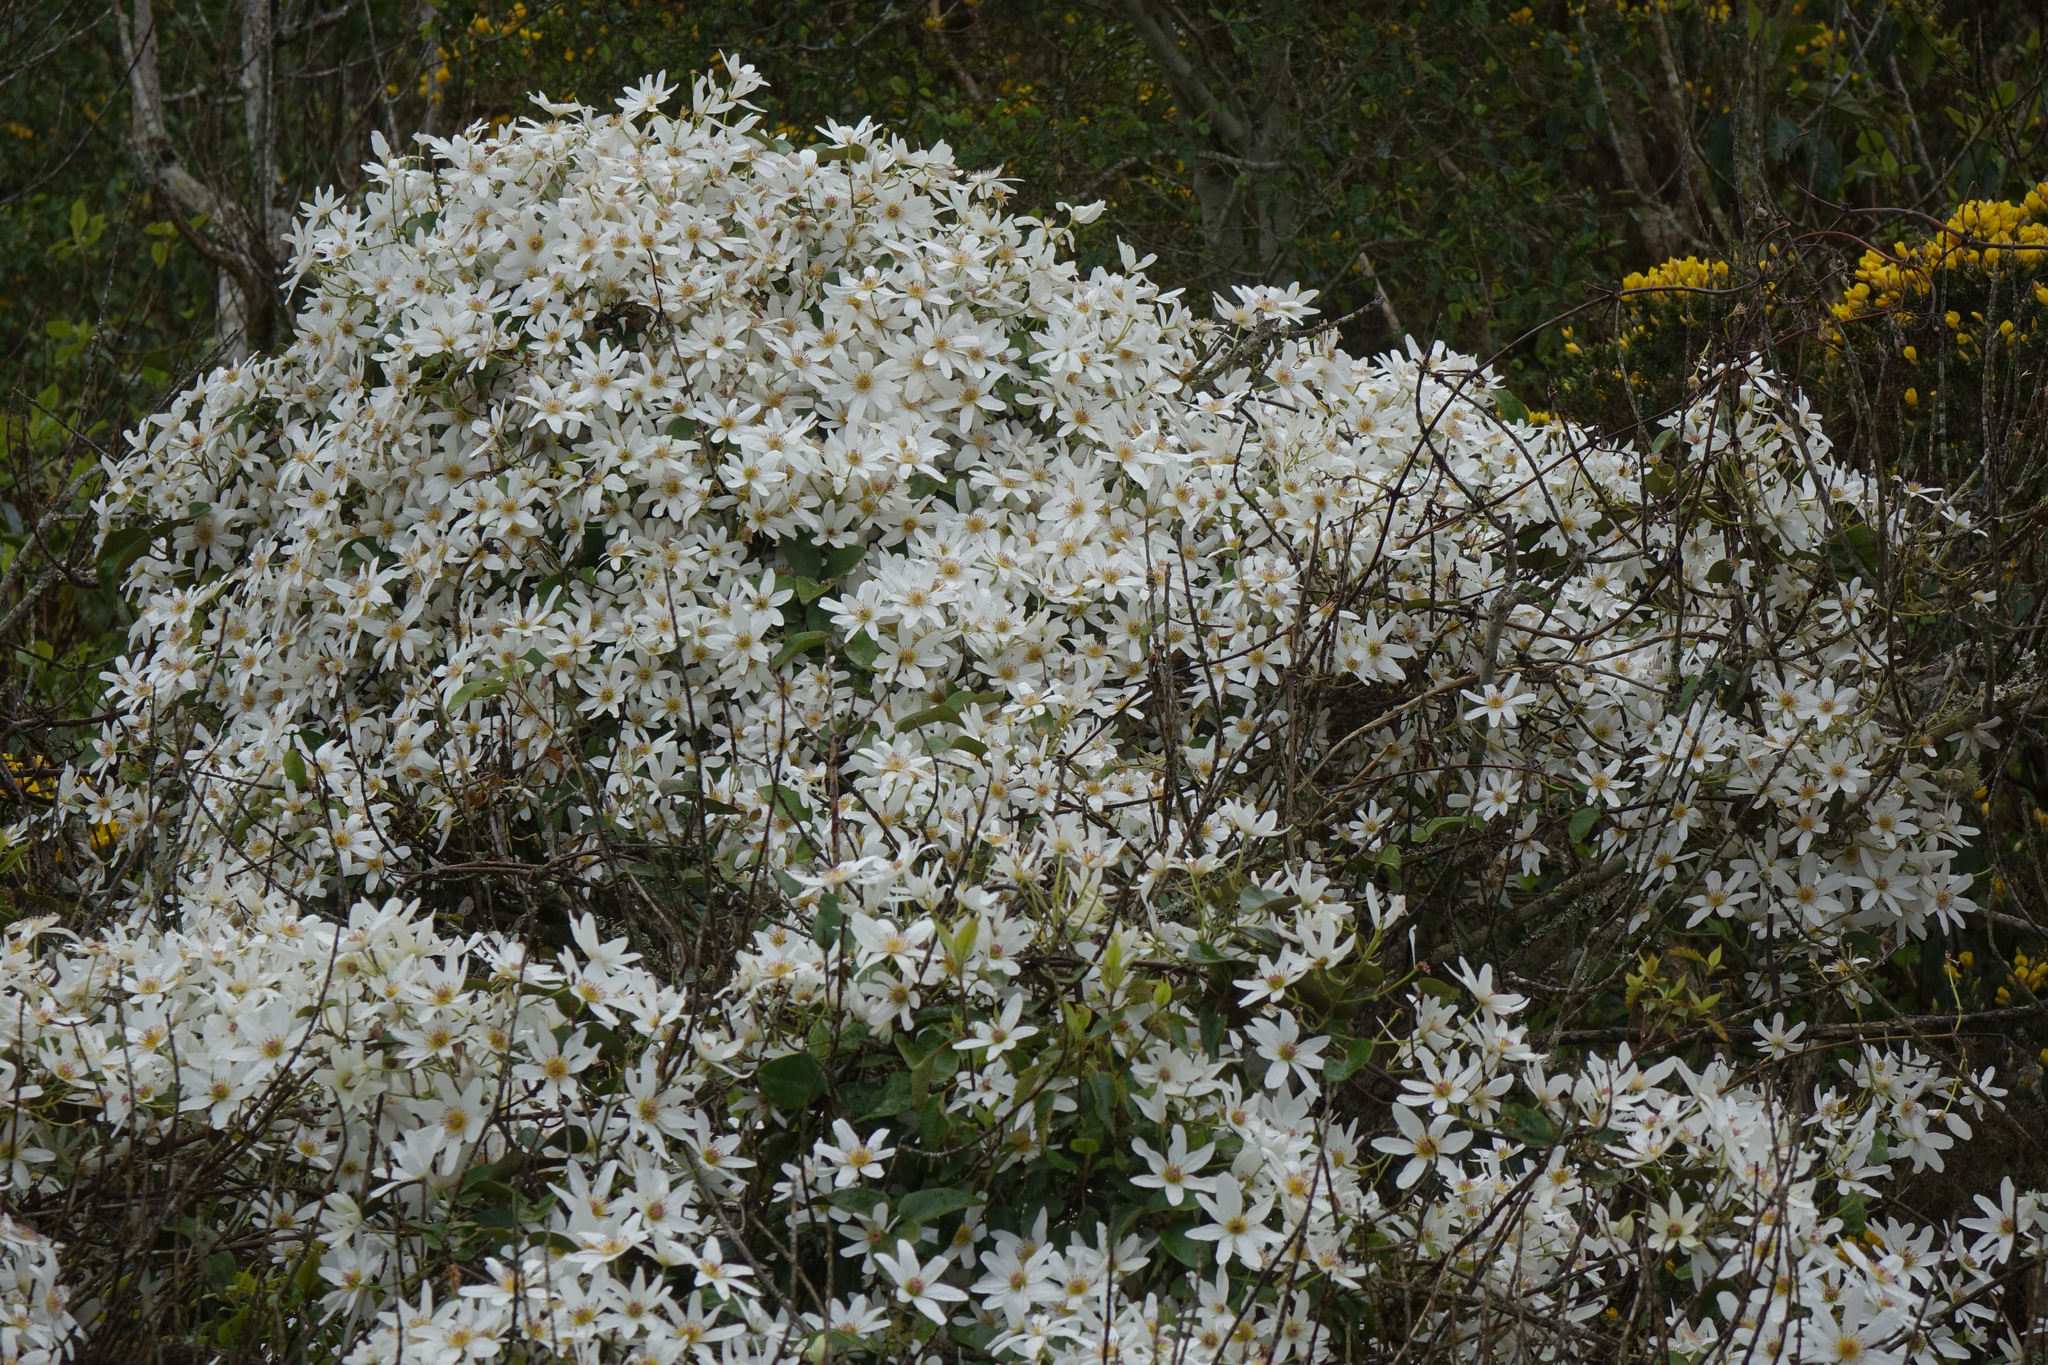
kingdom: Plantae
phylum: Tracheophyta
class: Magnoliopsida
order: Ranunculales
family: Ranunculaceae
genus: Clematis
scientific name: Clematis paniculata
